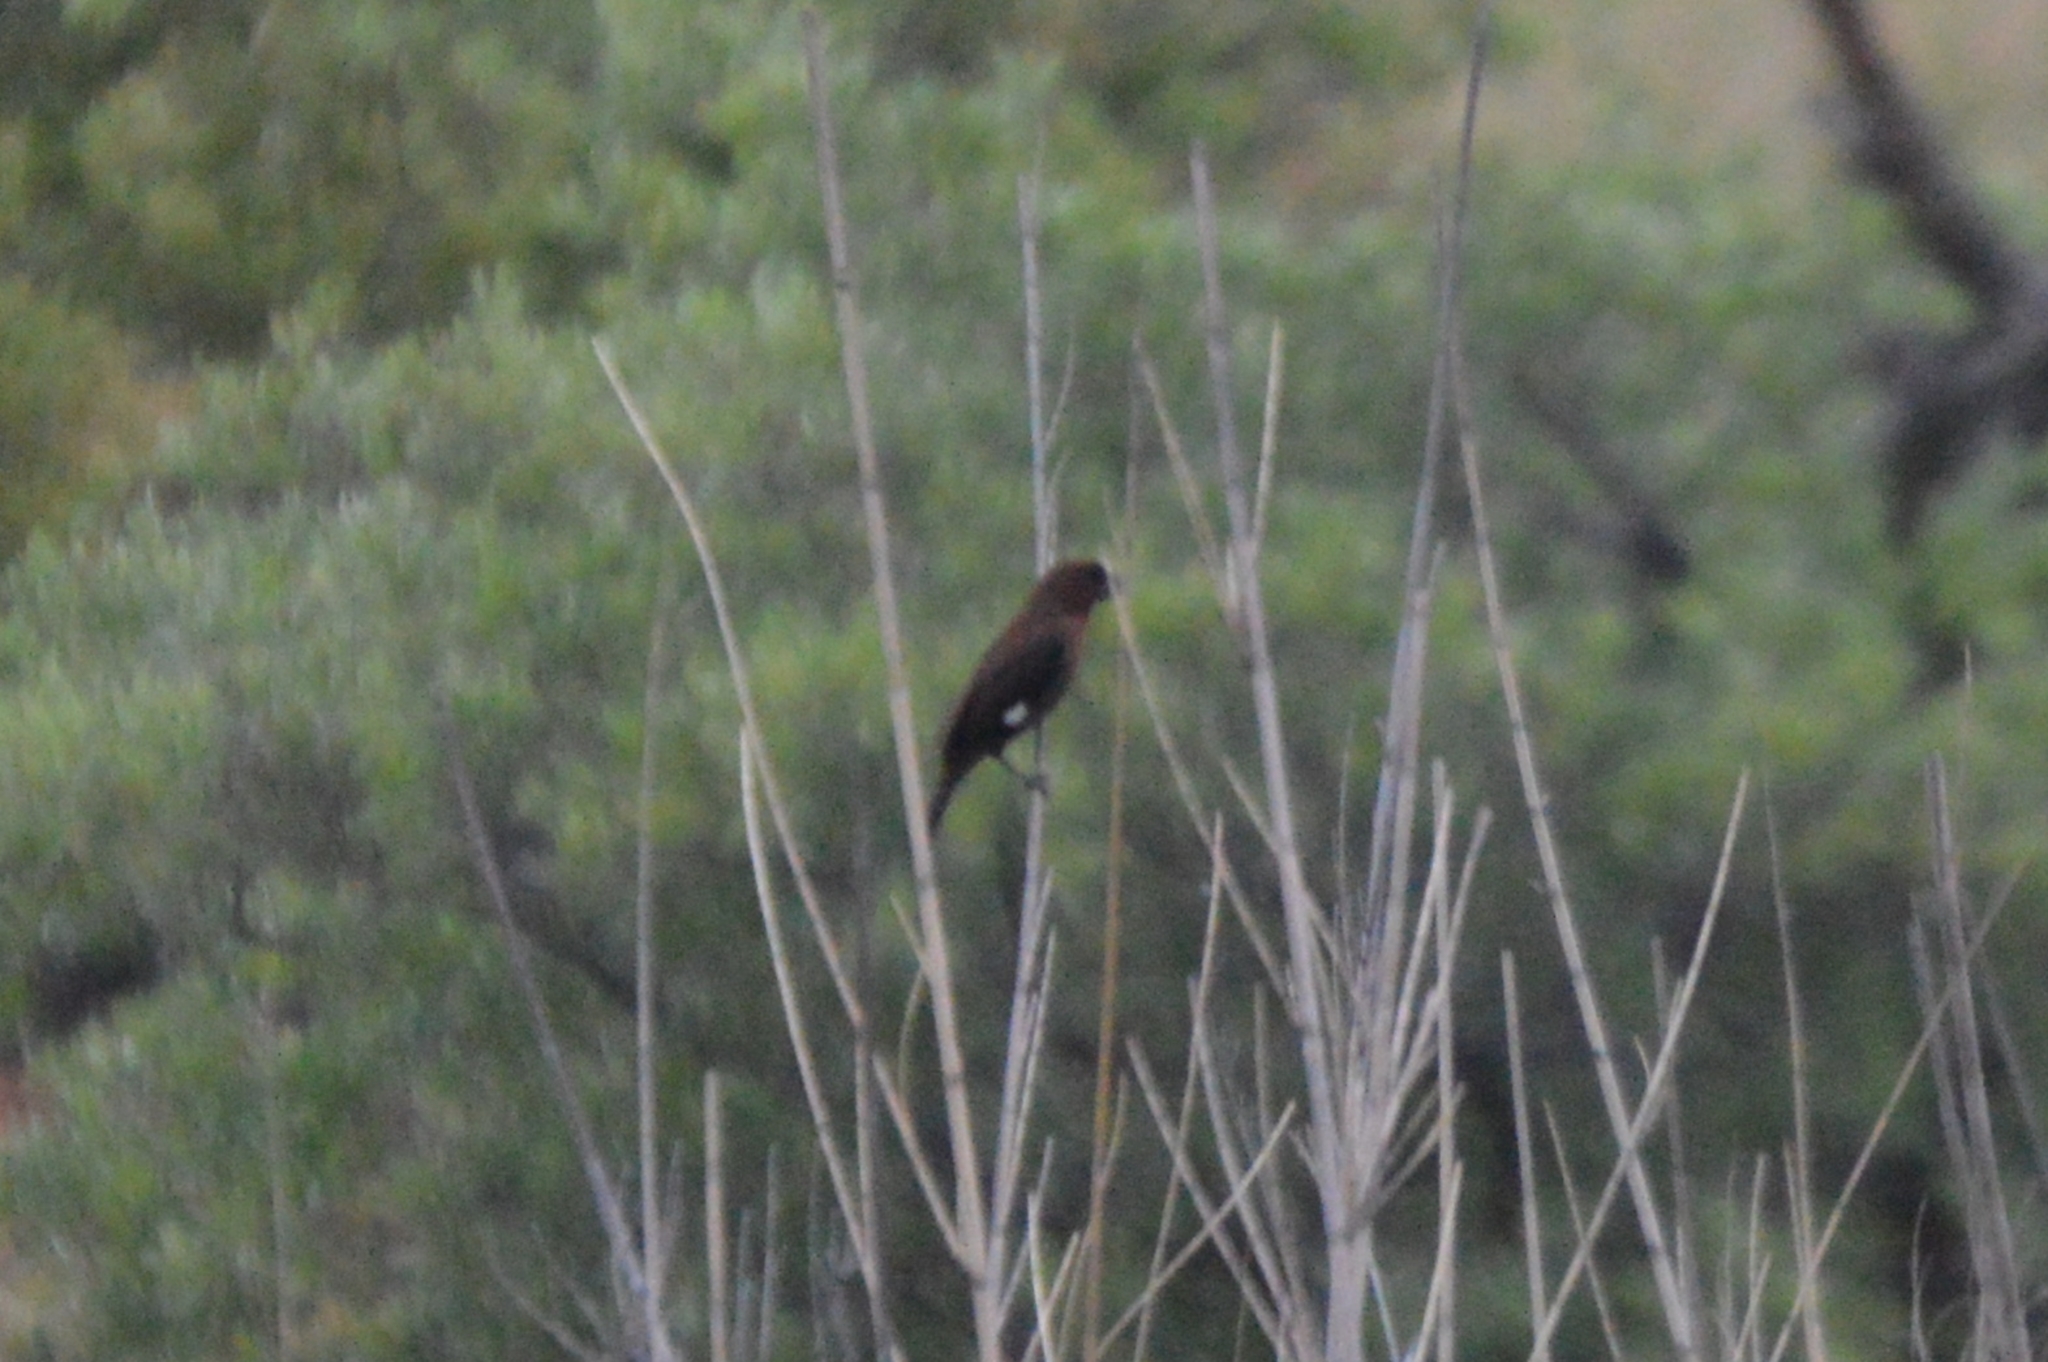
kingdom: Animalia
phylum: Chordata
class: Aves
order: Passeriformes
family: Ploceidae
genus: Amblyospiza
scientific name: Amblyospiza albifrons
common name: Thick-billed weaver
